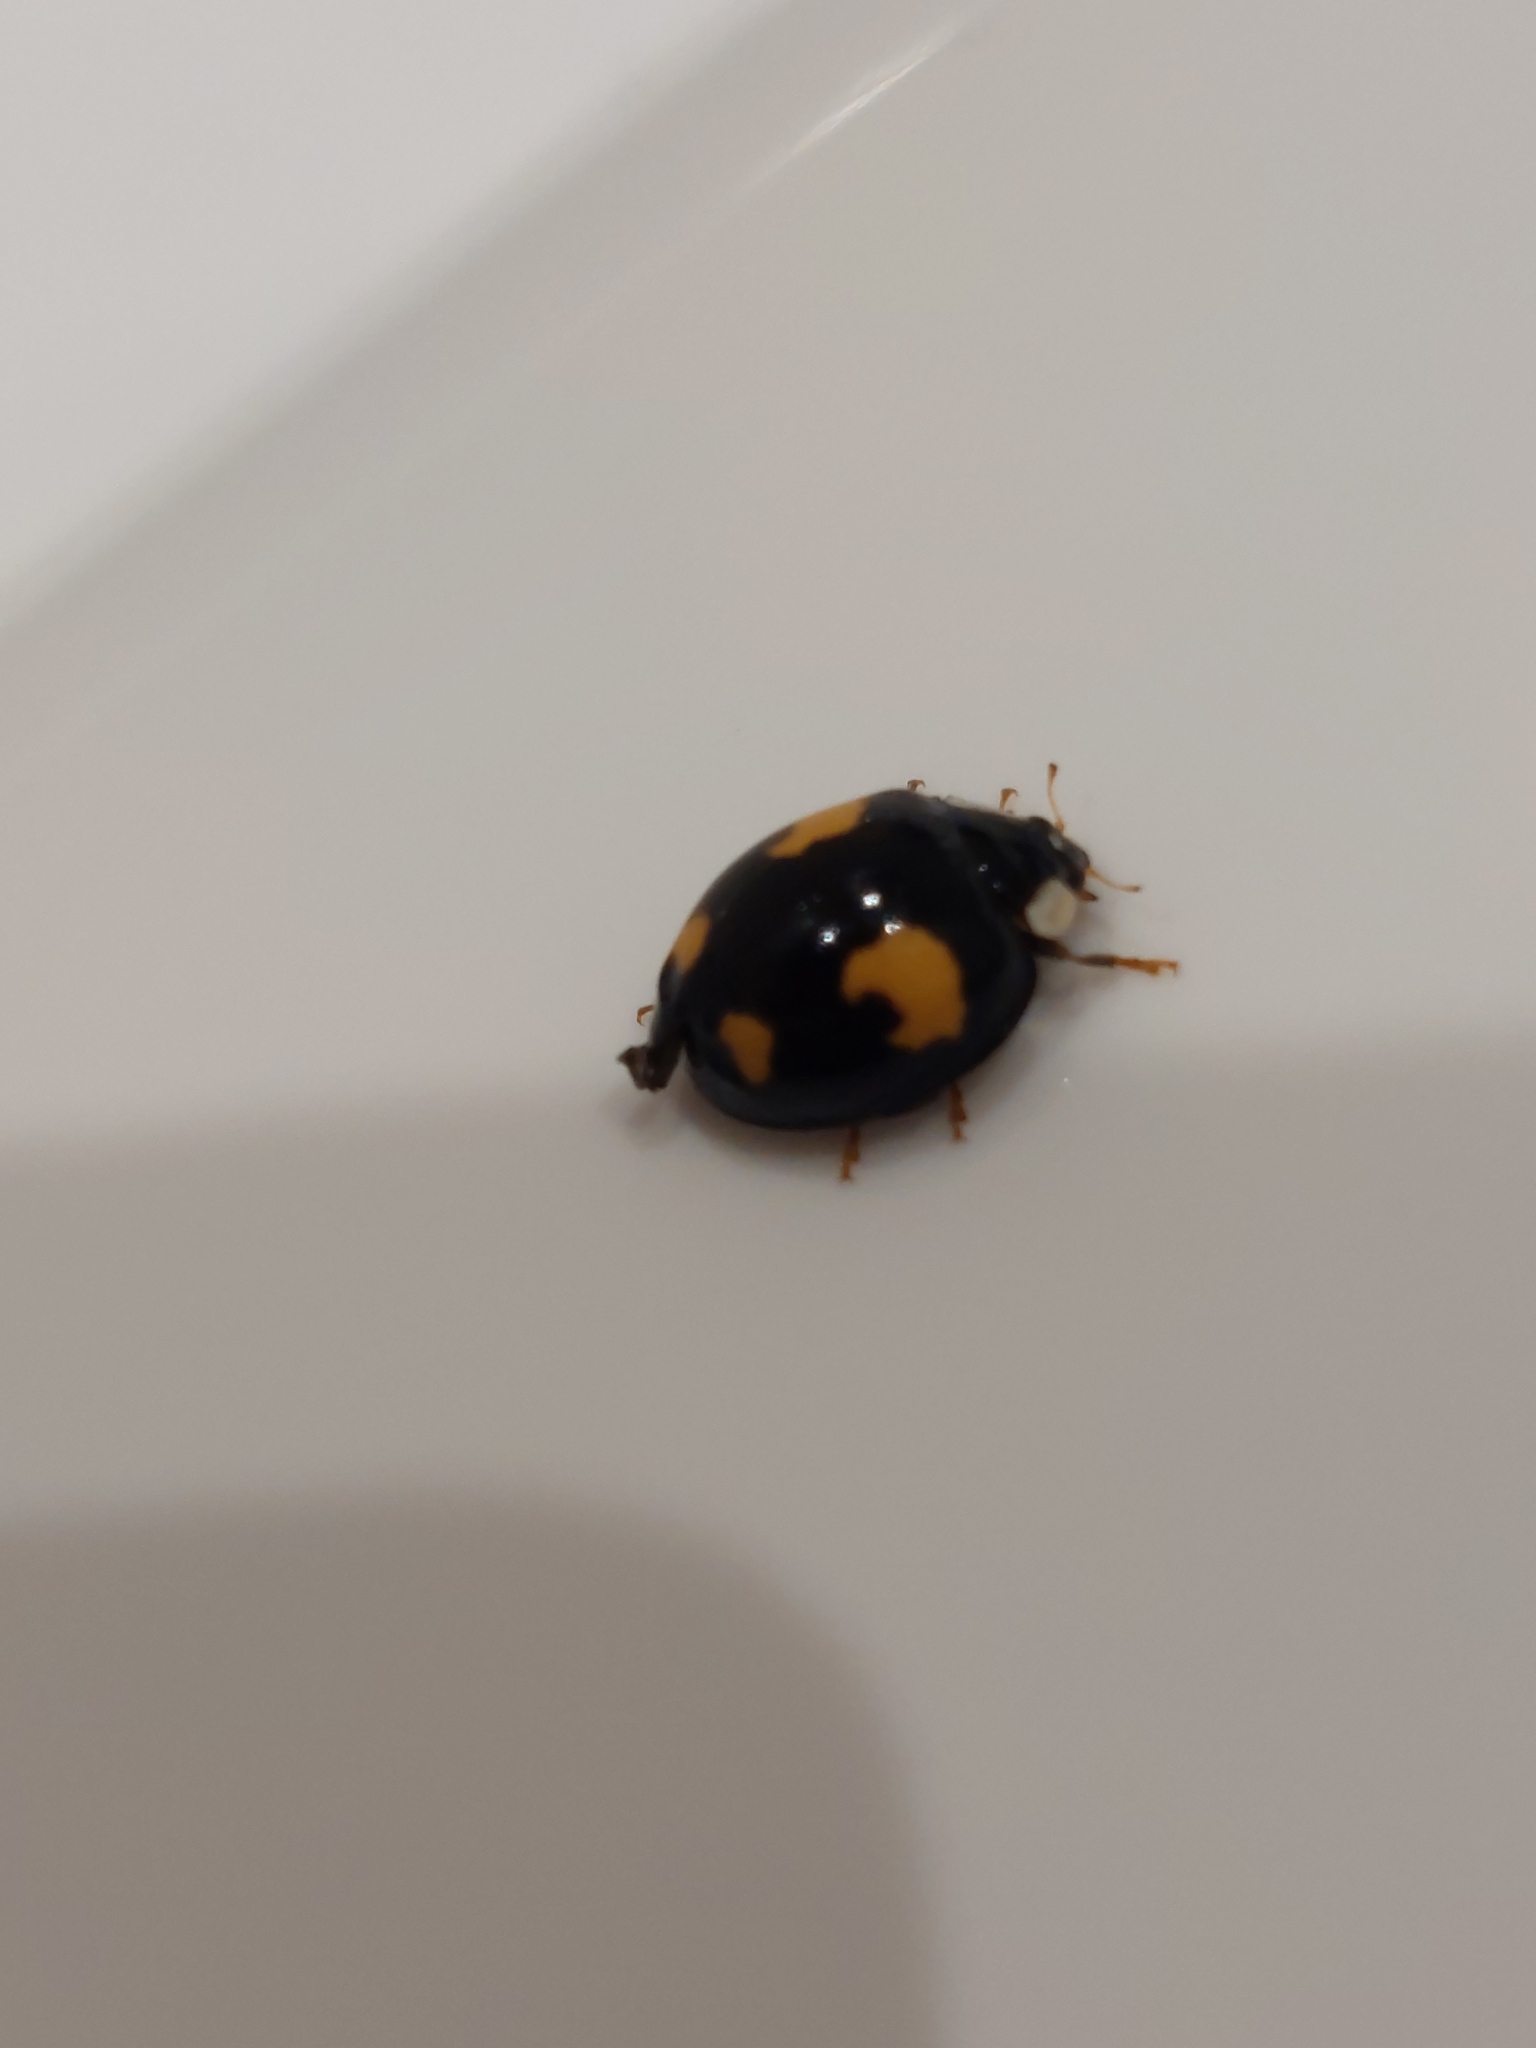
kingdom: Animalia
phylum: Arthropoda
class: Insecta
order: Coleoptera
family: Coccinellidae
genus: Harmonia
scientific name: Harmonia axyridis
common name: Harlequin ladybird
